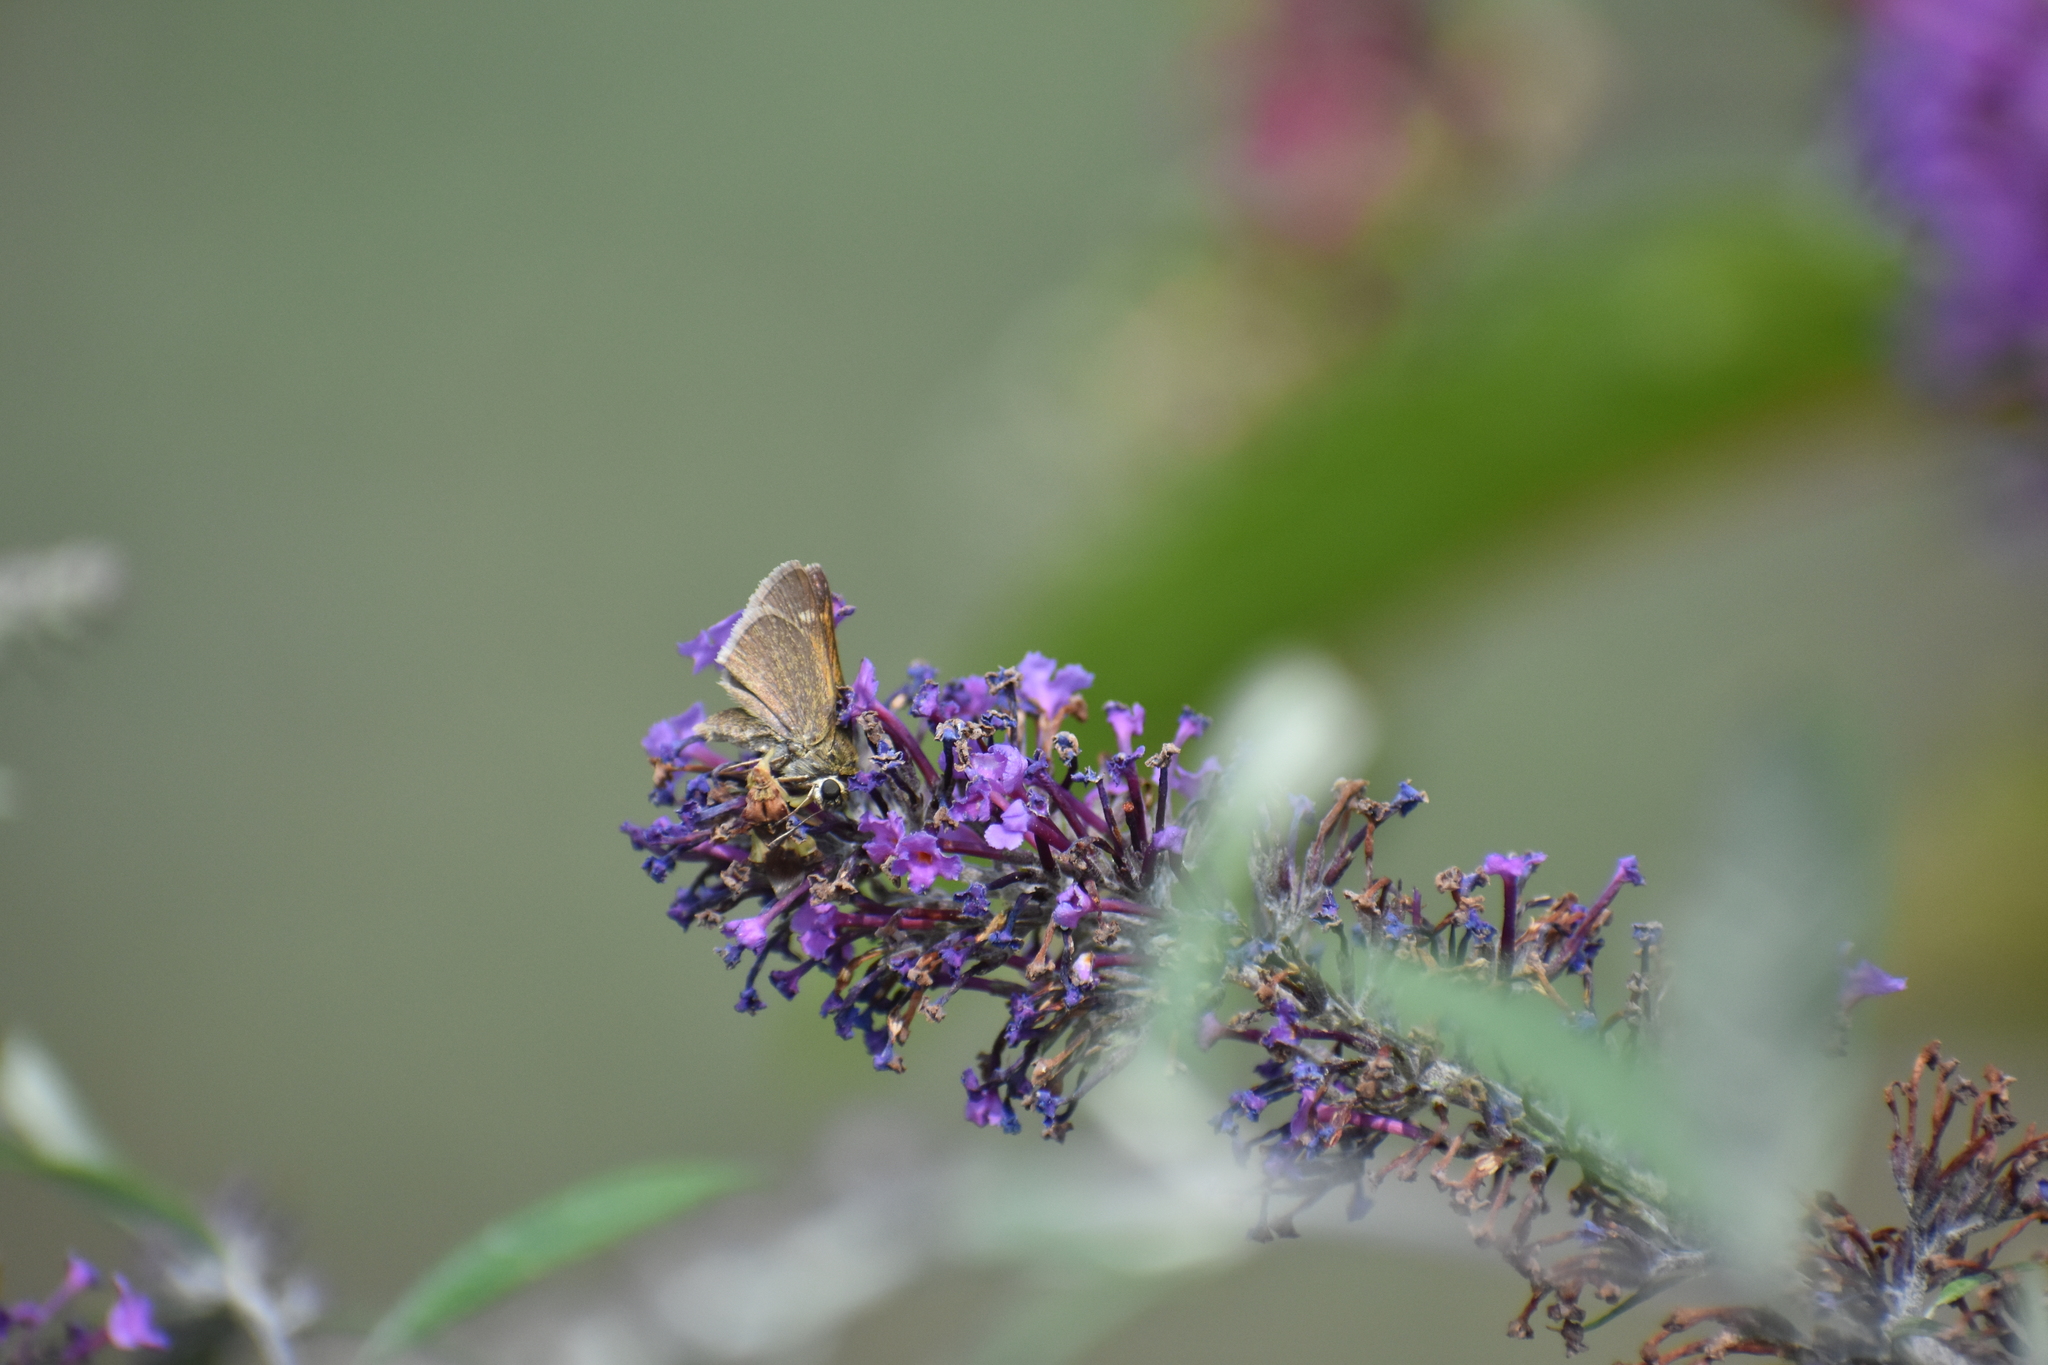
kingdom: Animalia
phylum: Arthropoda
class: Insecta
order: Lepidoptera
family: Hesperiidae
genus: Polites
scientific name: Polites themistocles
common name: Tawny-edged skipper
